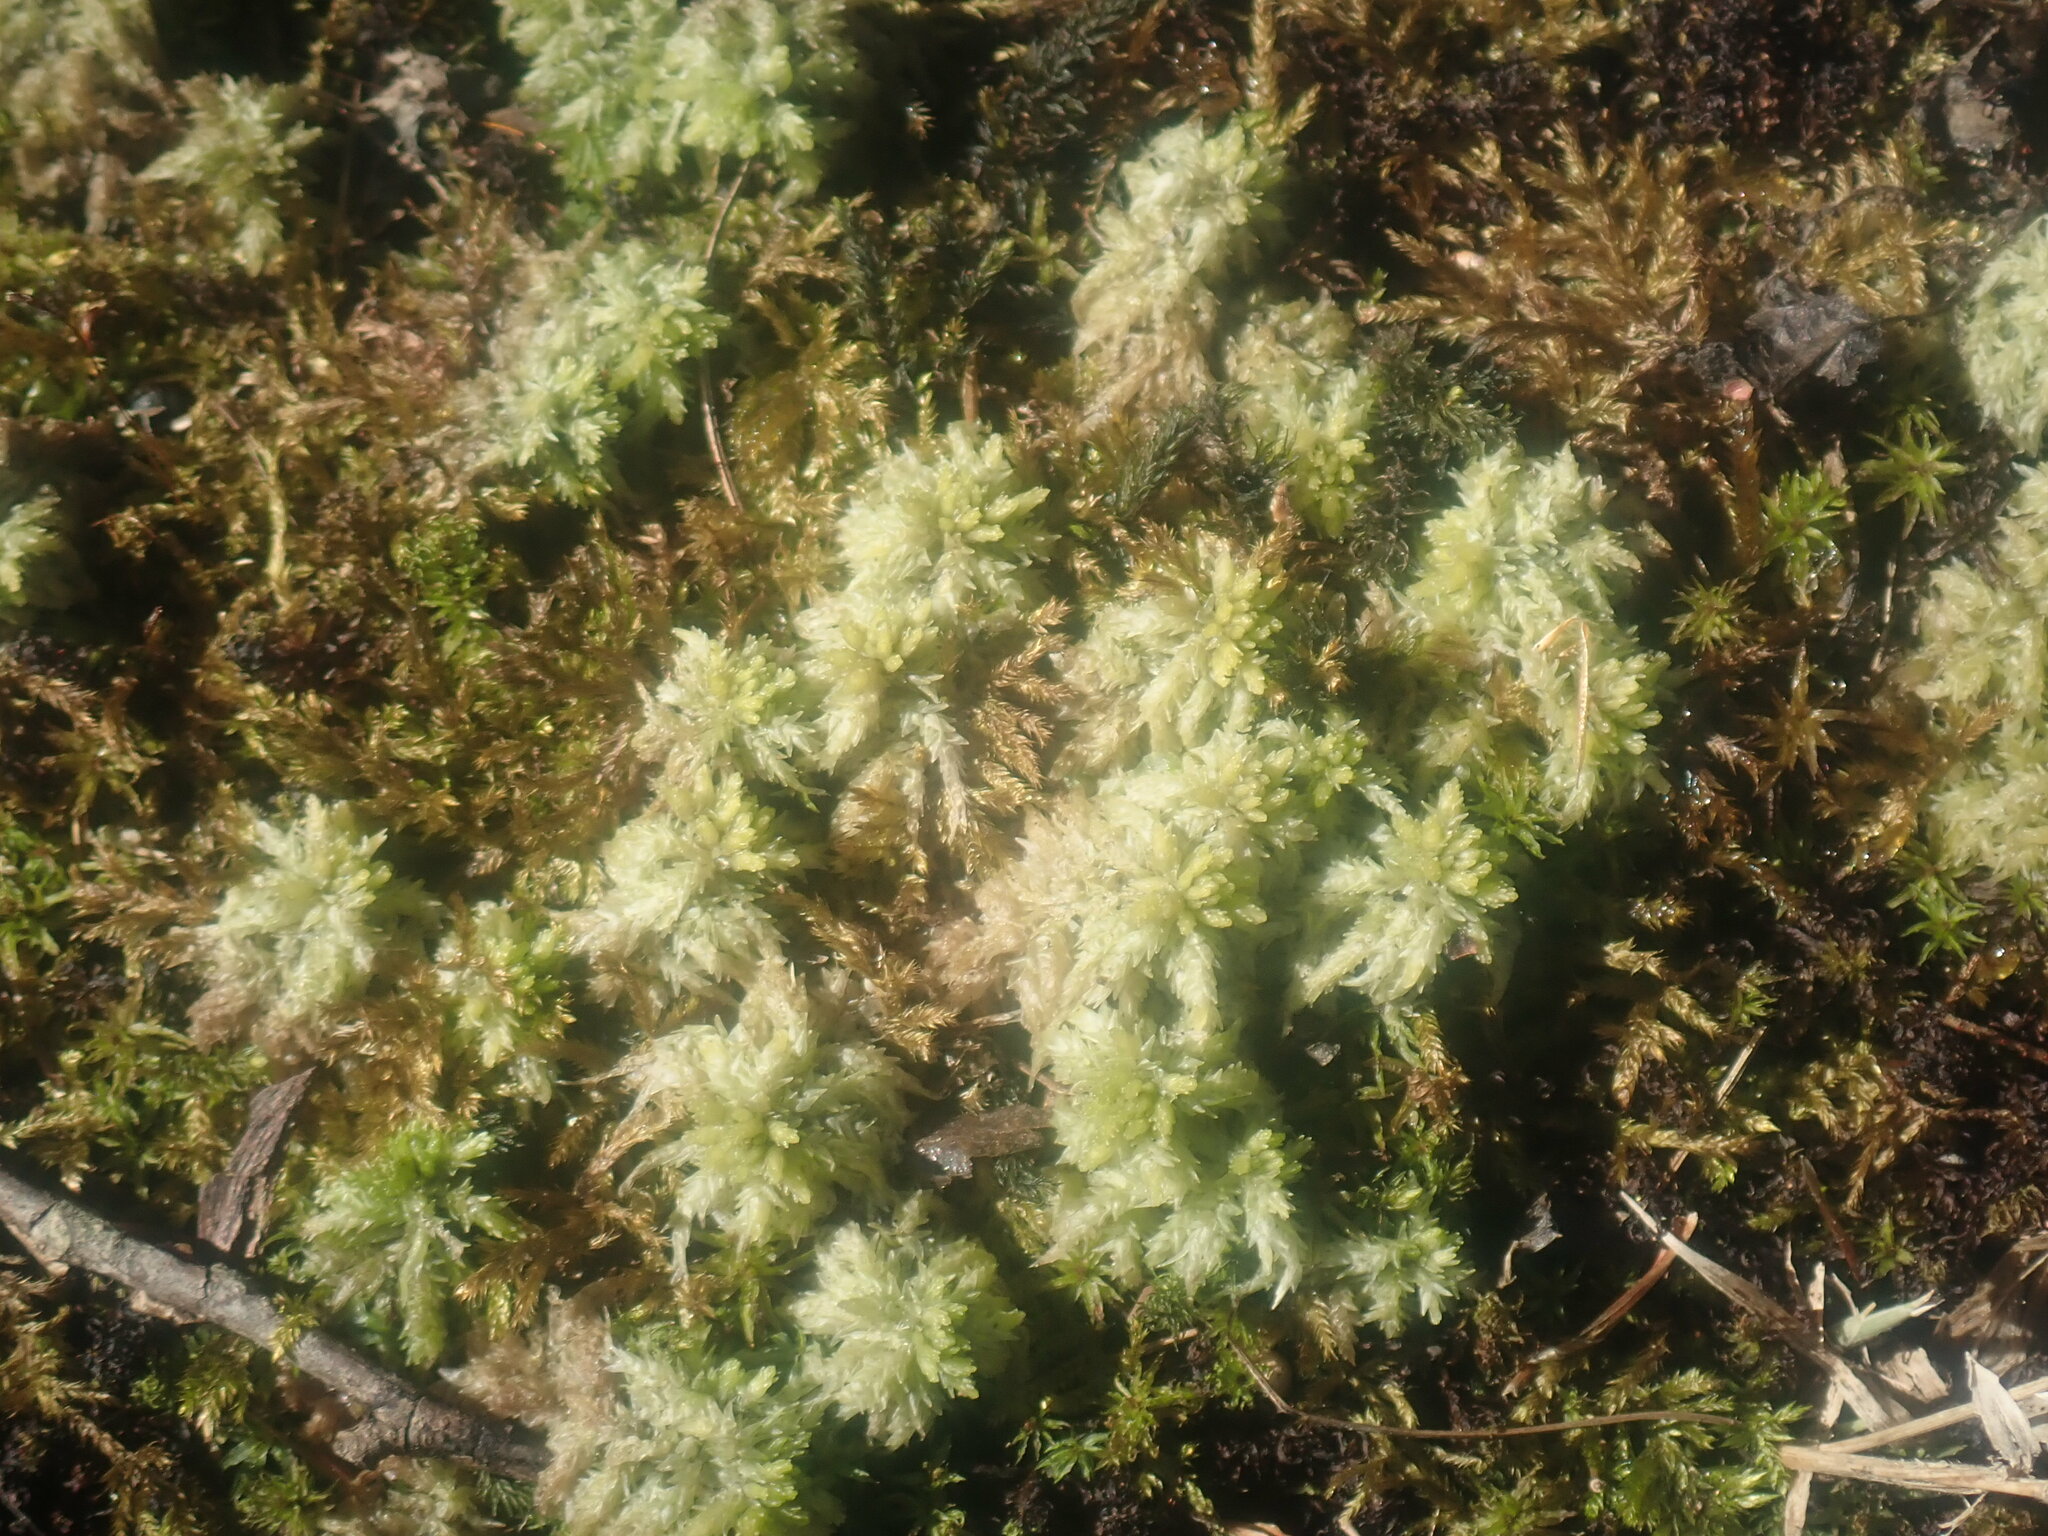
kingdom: Plantae
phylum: Bryophyta
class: Sphagnopsida
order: Sphagnales
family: Sphagnaceae
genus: Sphagnum
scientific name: Sphagnum
